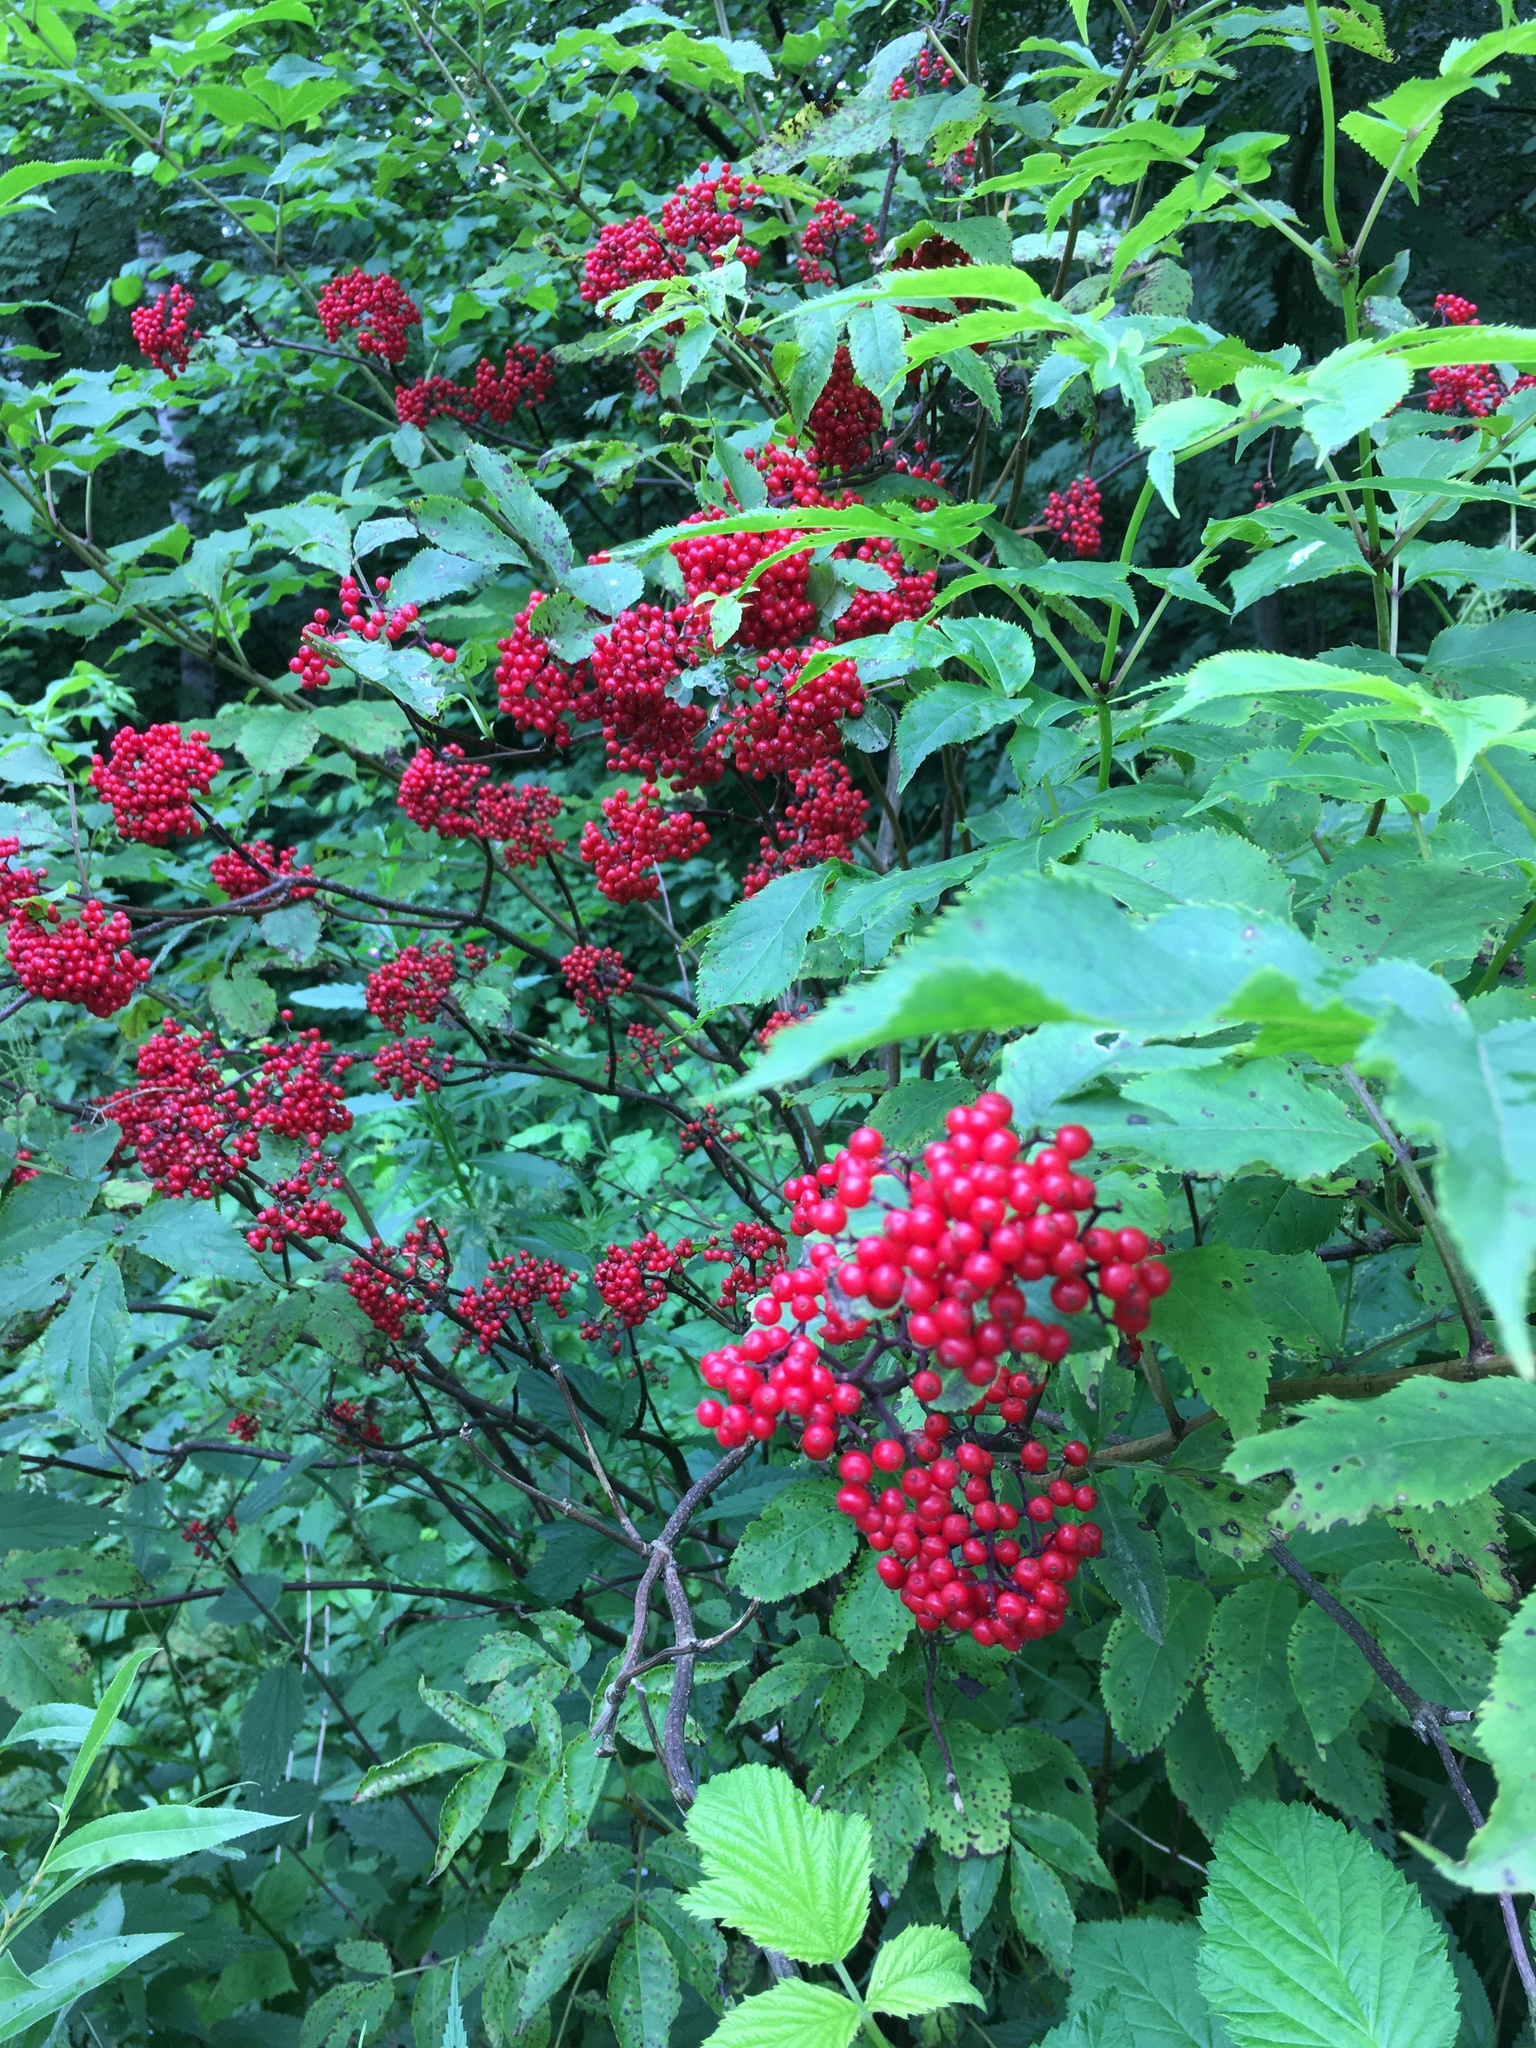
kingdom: Plantae
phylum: Tracheophyta
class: Magnoliopsida
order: Dipsacales
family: Viburnaceae
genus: Sambucus
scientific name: Sambucus racemosa
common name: Red-berried elder
